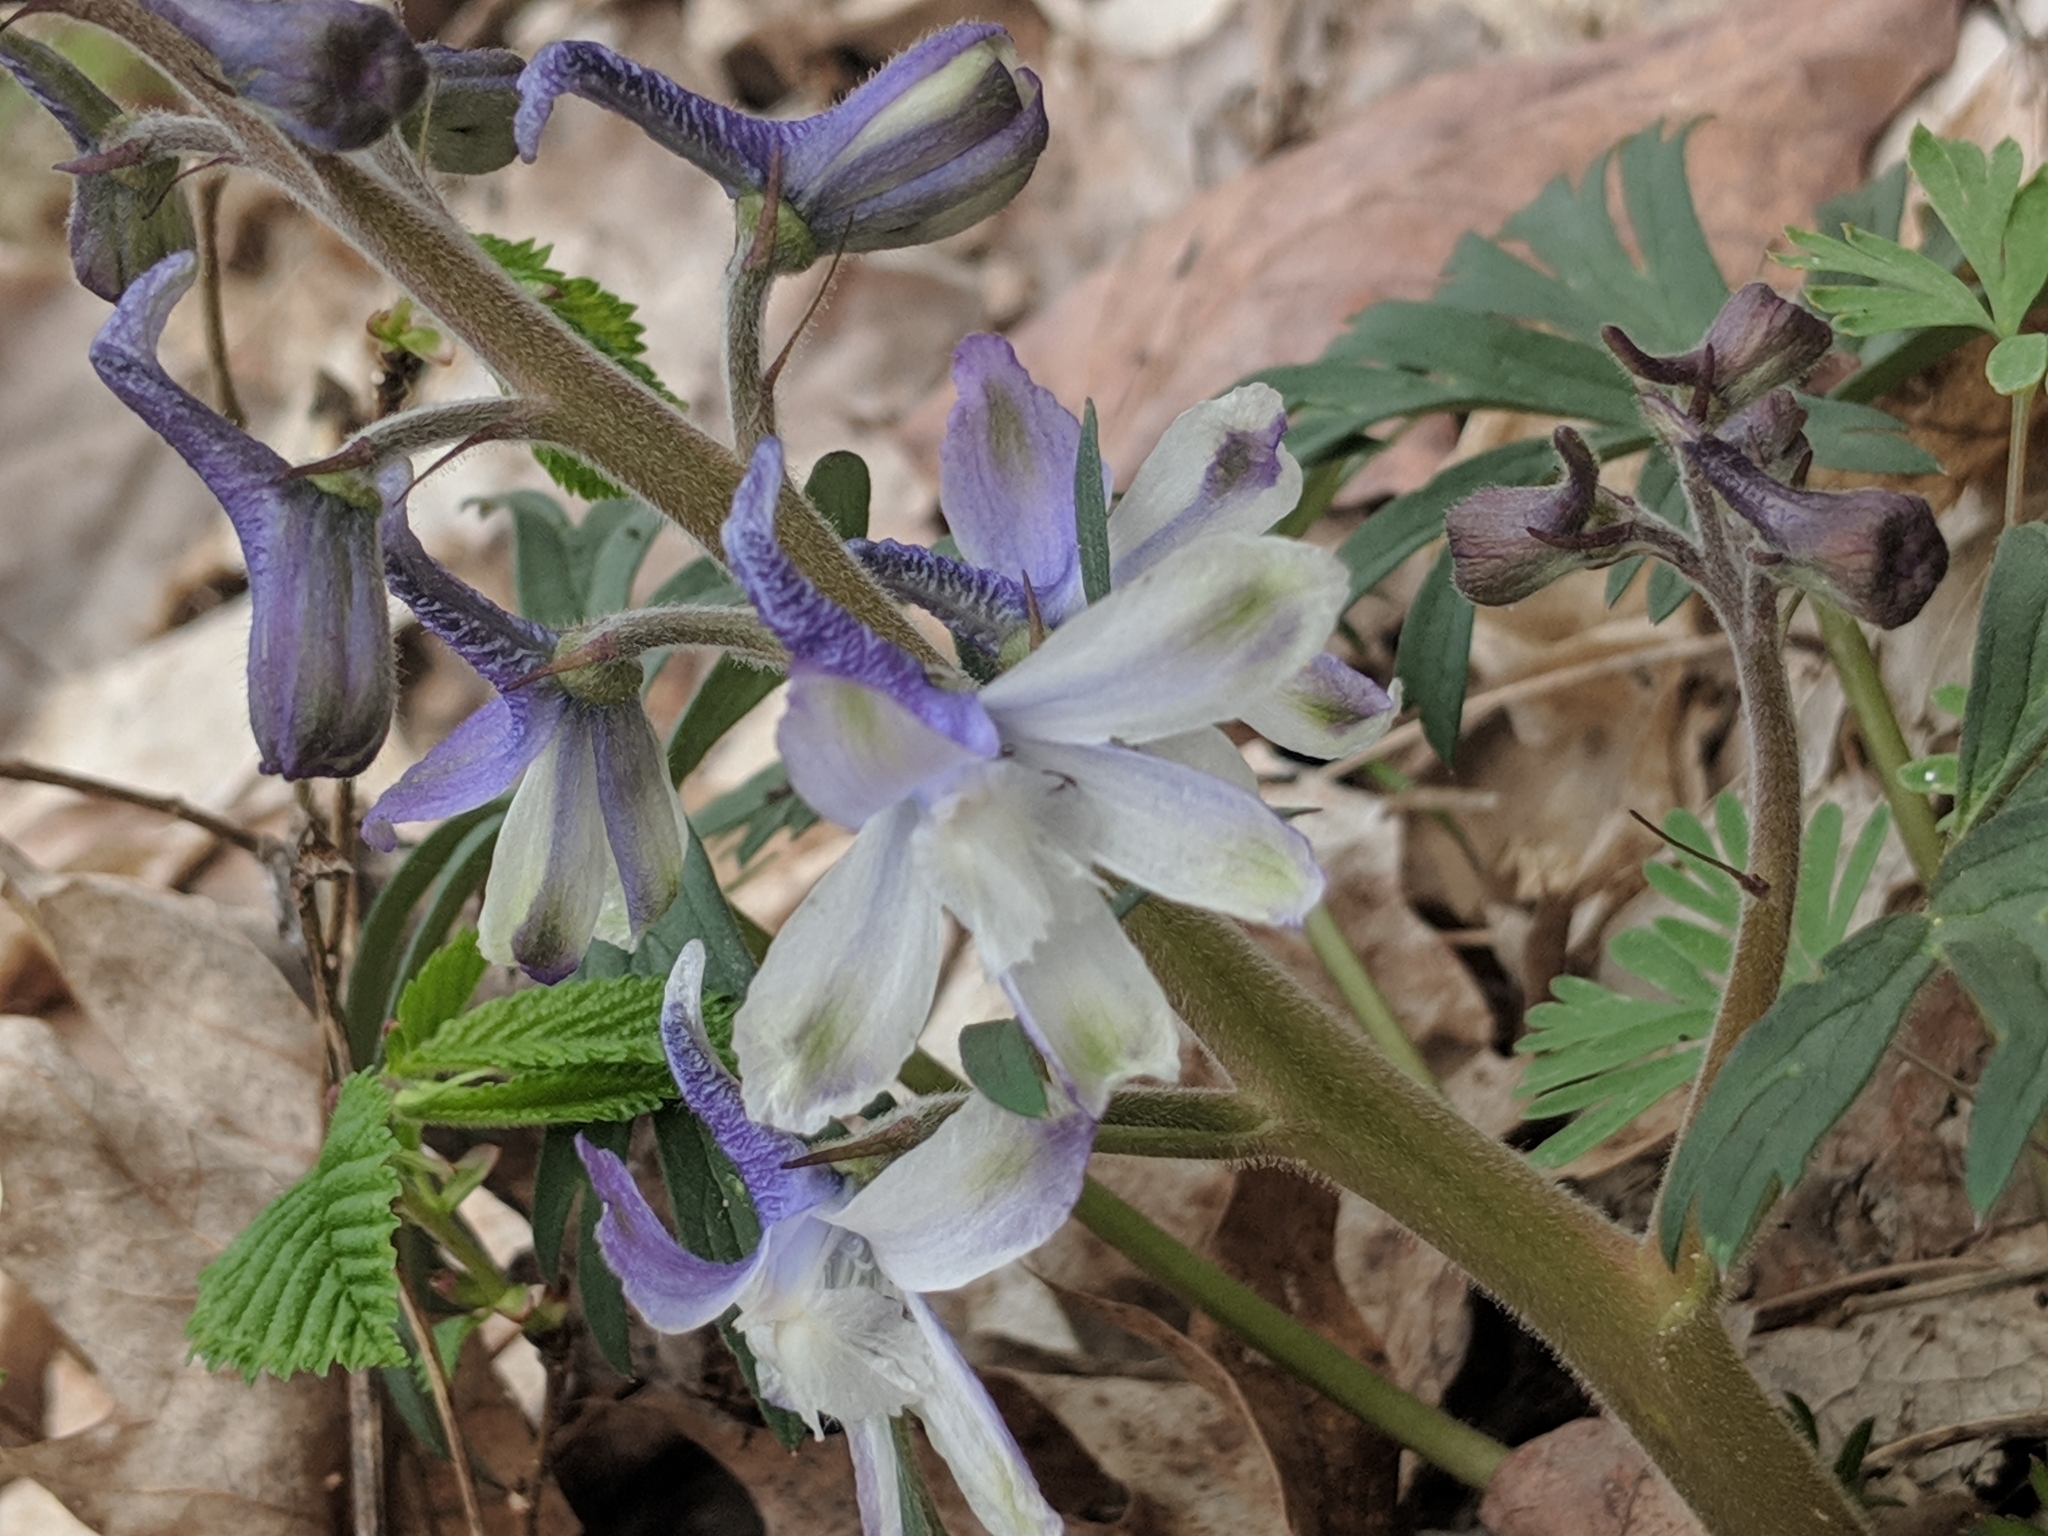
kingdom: Plantae
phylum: Tracheophyta
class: Magnoliopsida
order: Ranunculales
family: Ranunculaceae
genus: Delphinium
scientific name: Delphinium tricorne
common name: Dwarf larkspur
